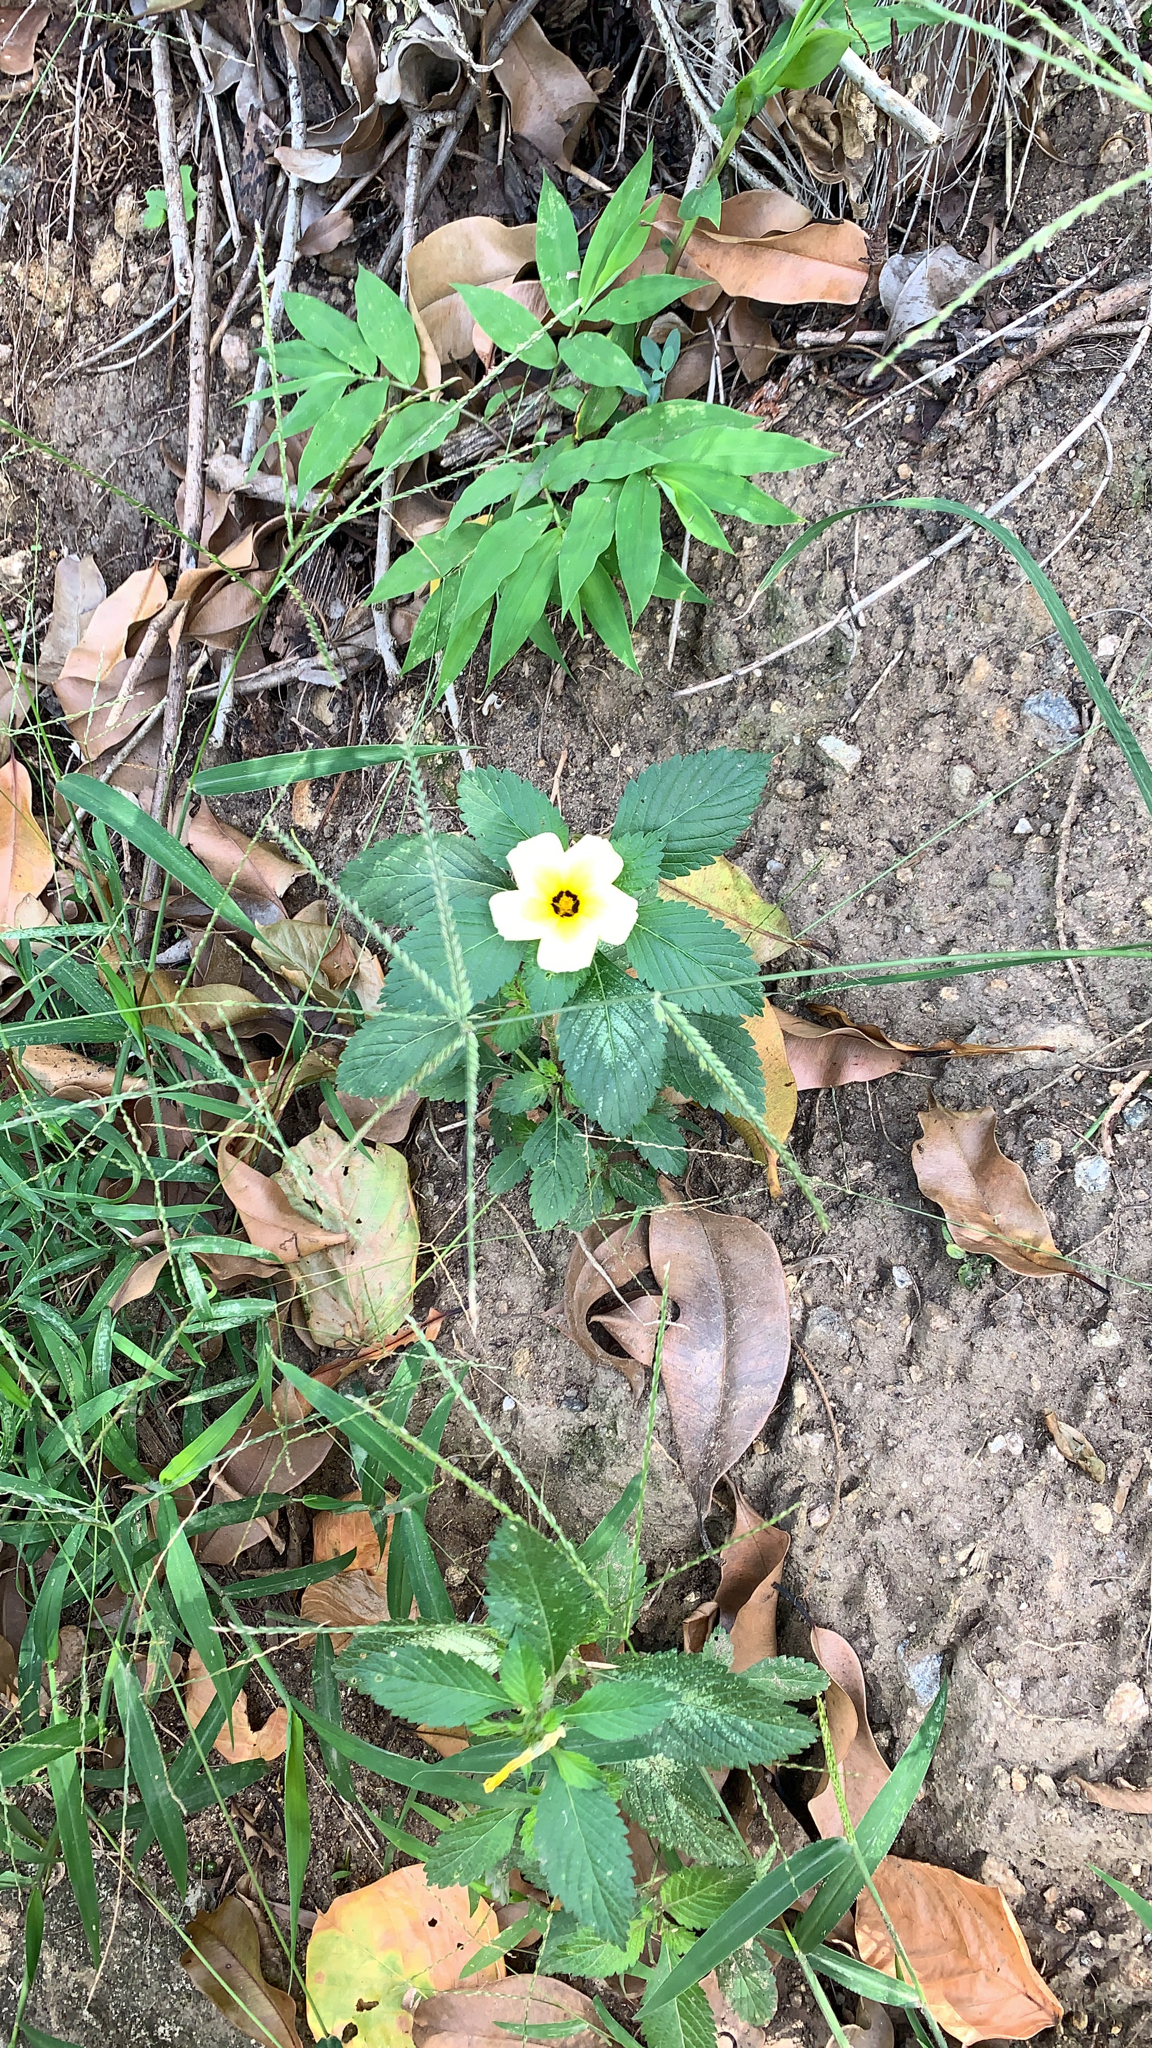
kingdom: Plantae
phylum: Tracheophyta
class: Magnoliopsida
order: Malpighiales
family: Turneraceae
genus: Turnera
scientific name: Turnera subulata
